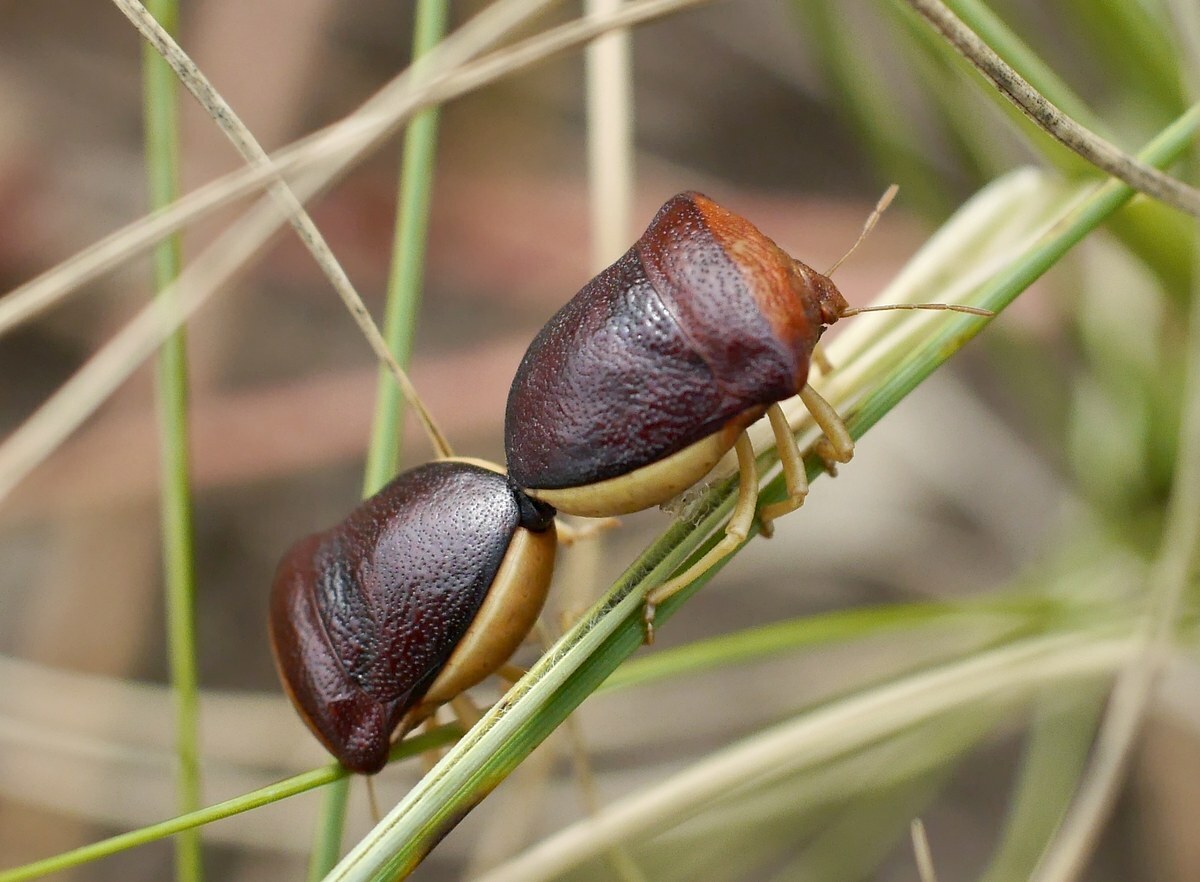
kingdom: Animalia
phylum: Arthropoda
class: Insecta
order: Hemiptera
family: Pentatomidae
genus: Ventocoris
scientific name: Ventocoris rusticus
